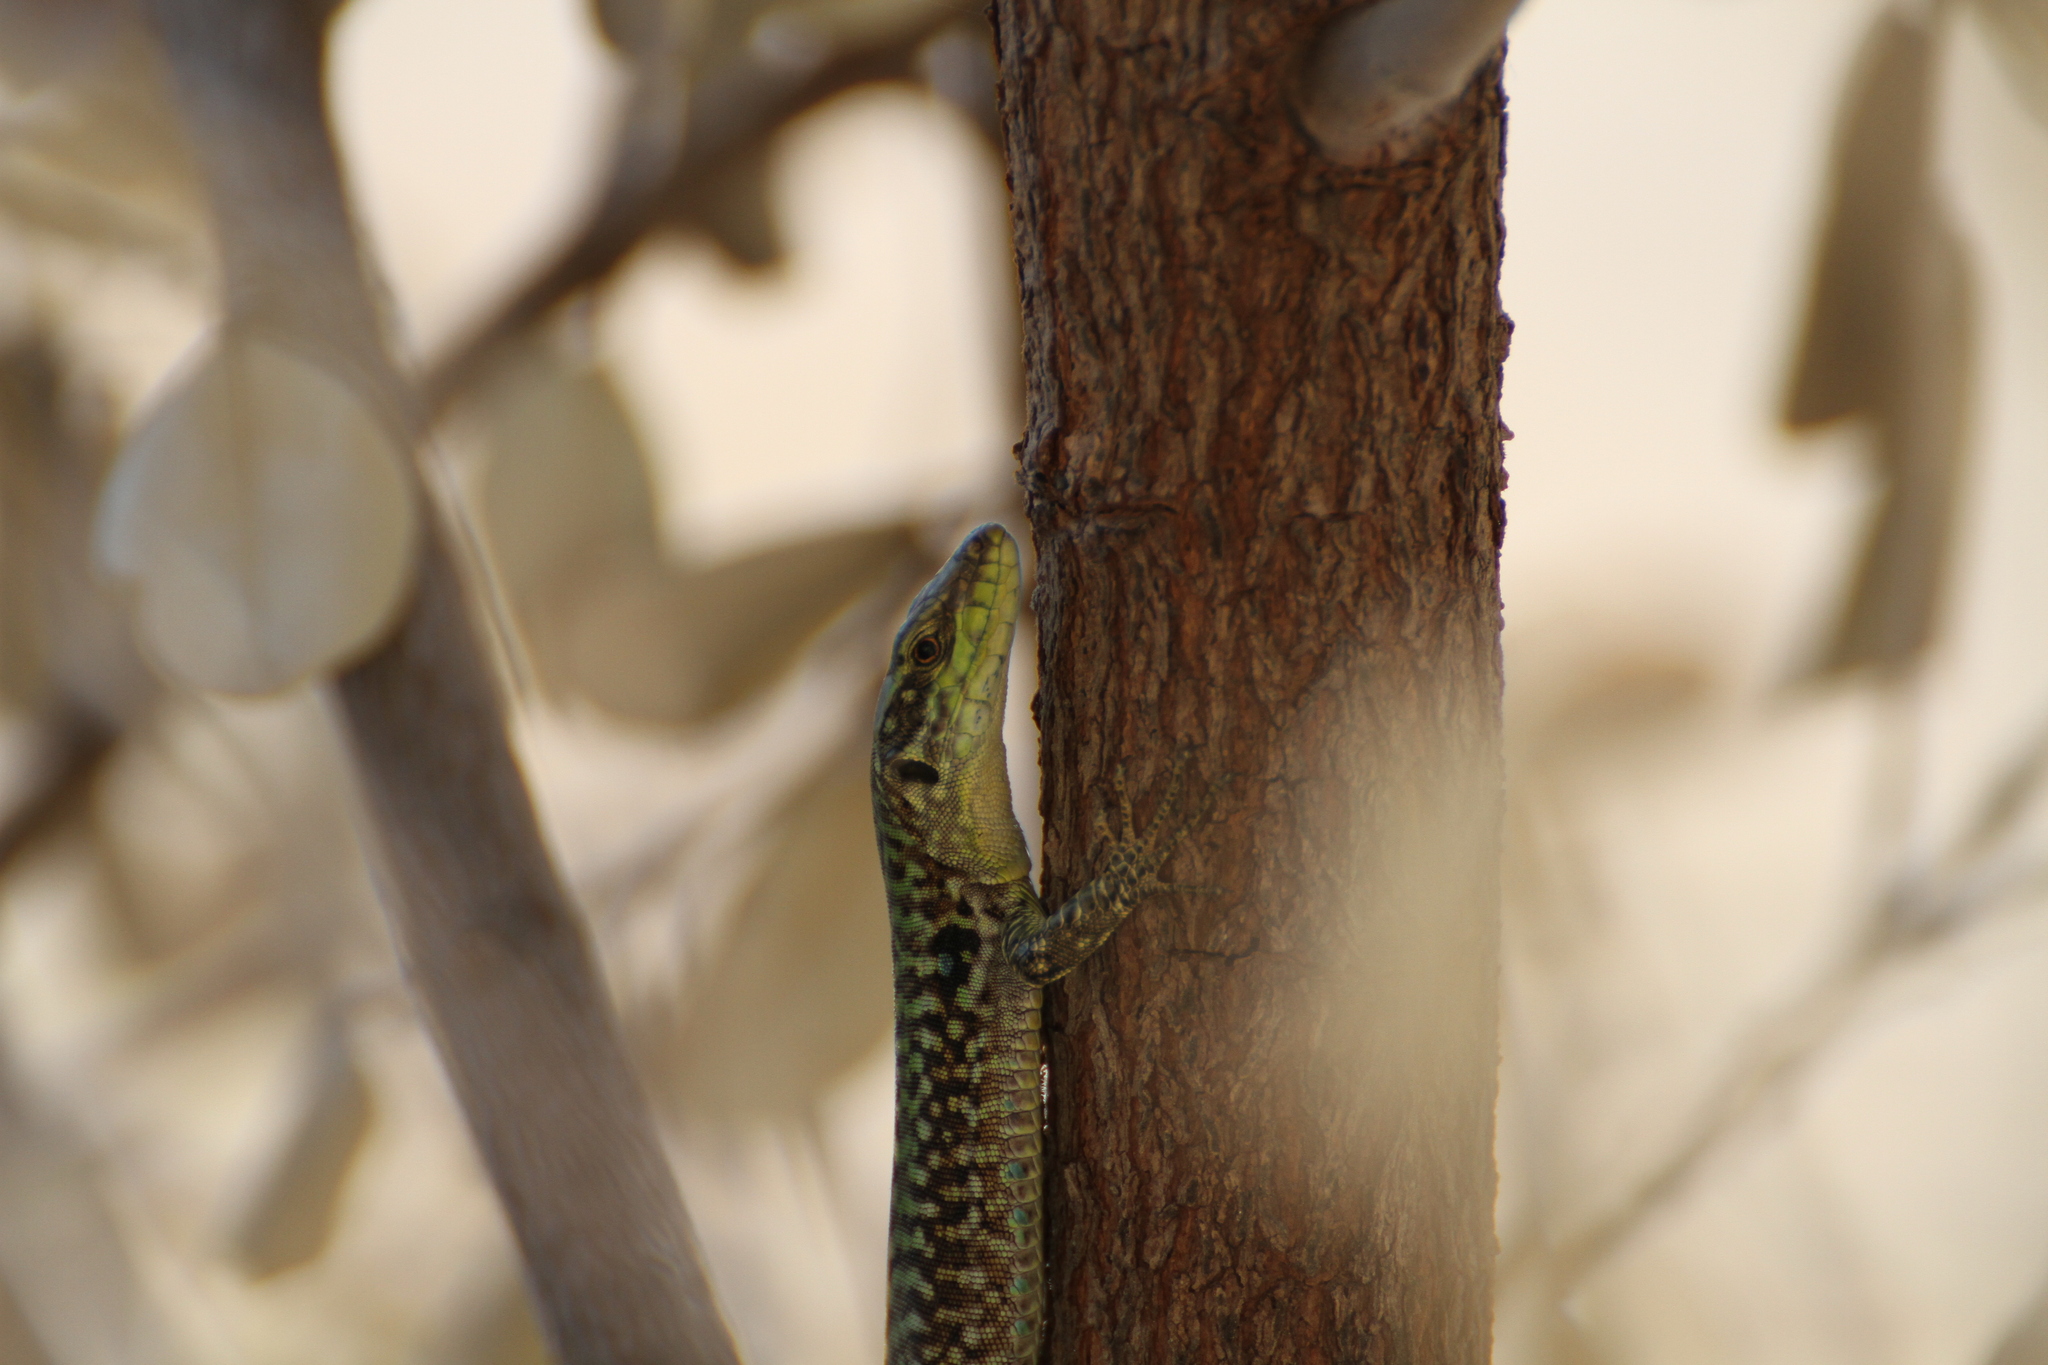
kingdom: Animalia
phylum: Chordata
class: Squamata
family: Lacertidae
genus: Podarcis
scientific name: Podarcis siculus
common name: Italian wall lizard
